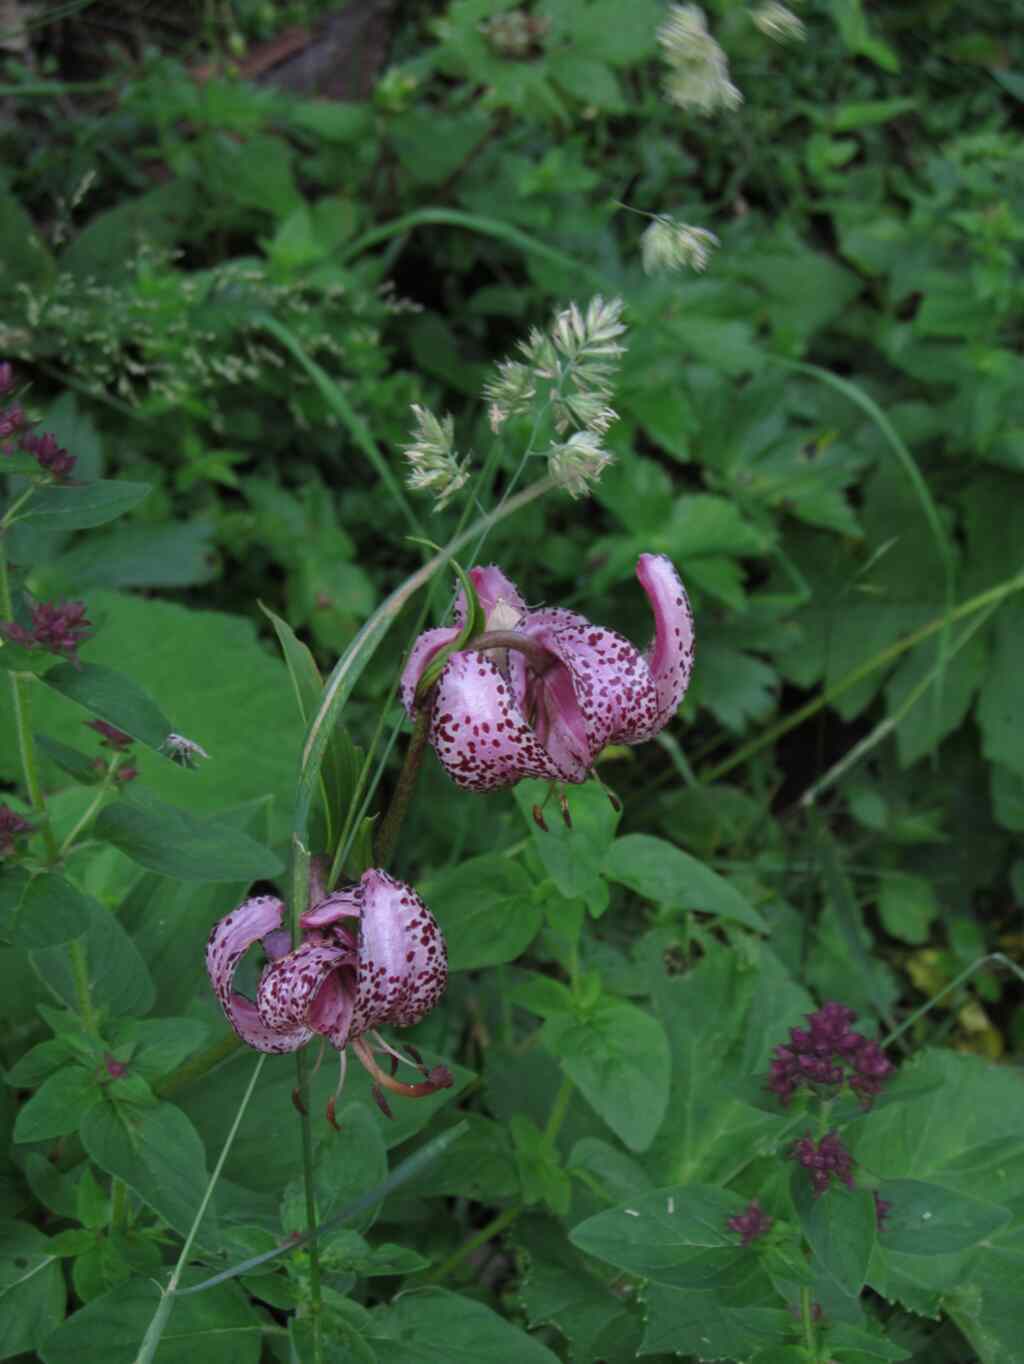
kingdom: Plantae
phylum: Tracheophyta
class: Liliopsida
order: Liliales
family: Liliaceae
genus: Lilium
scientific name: Lilium martagon
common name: Martagon lily
